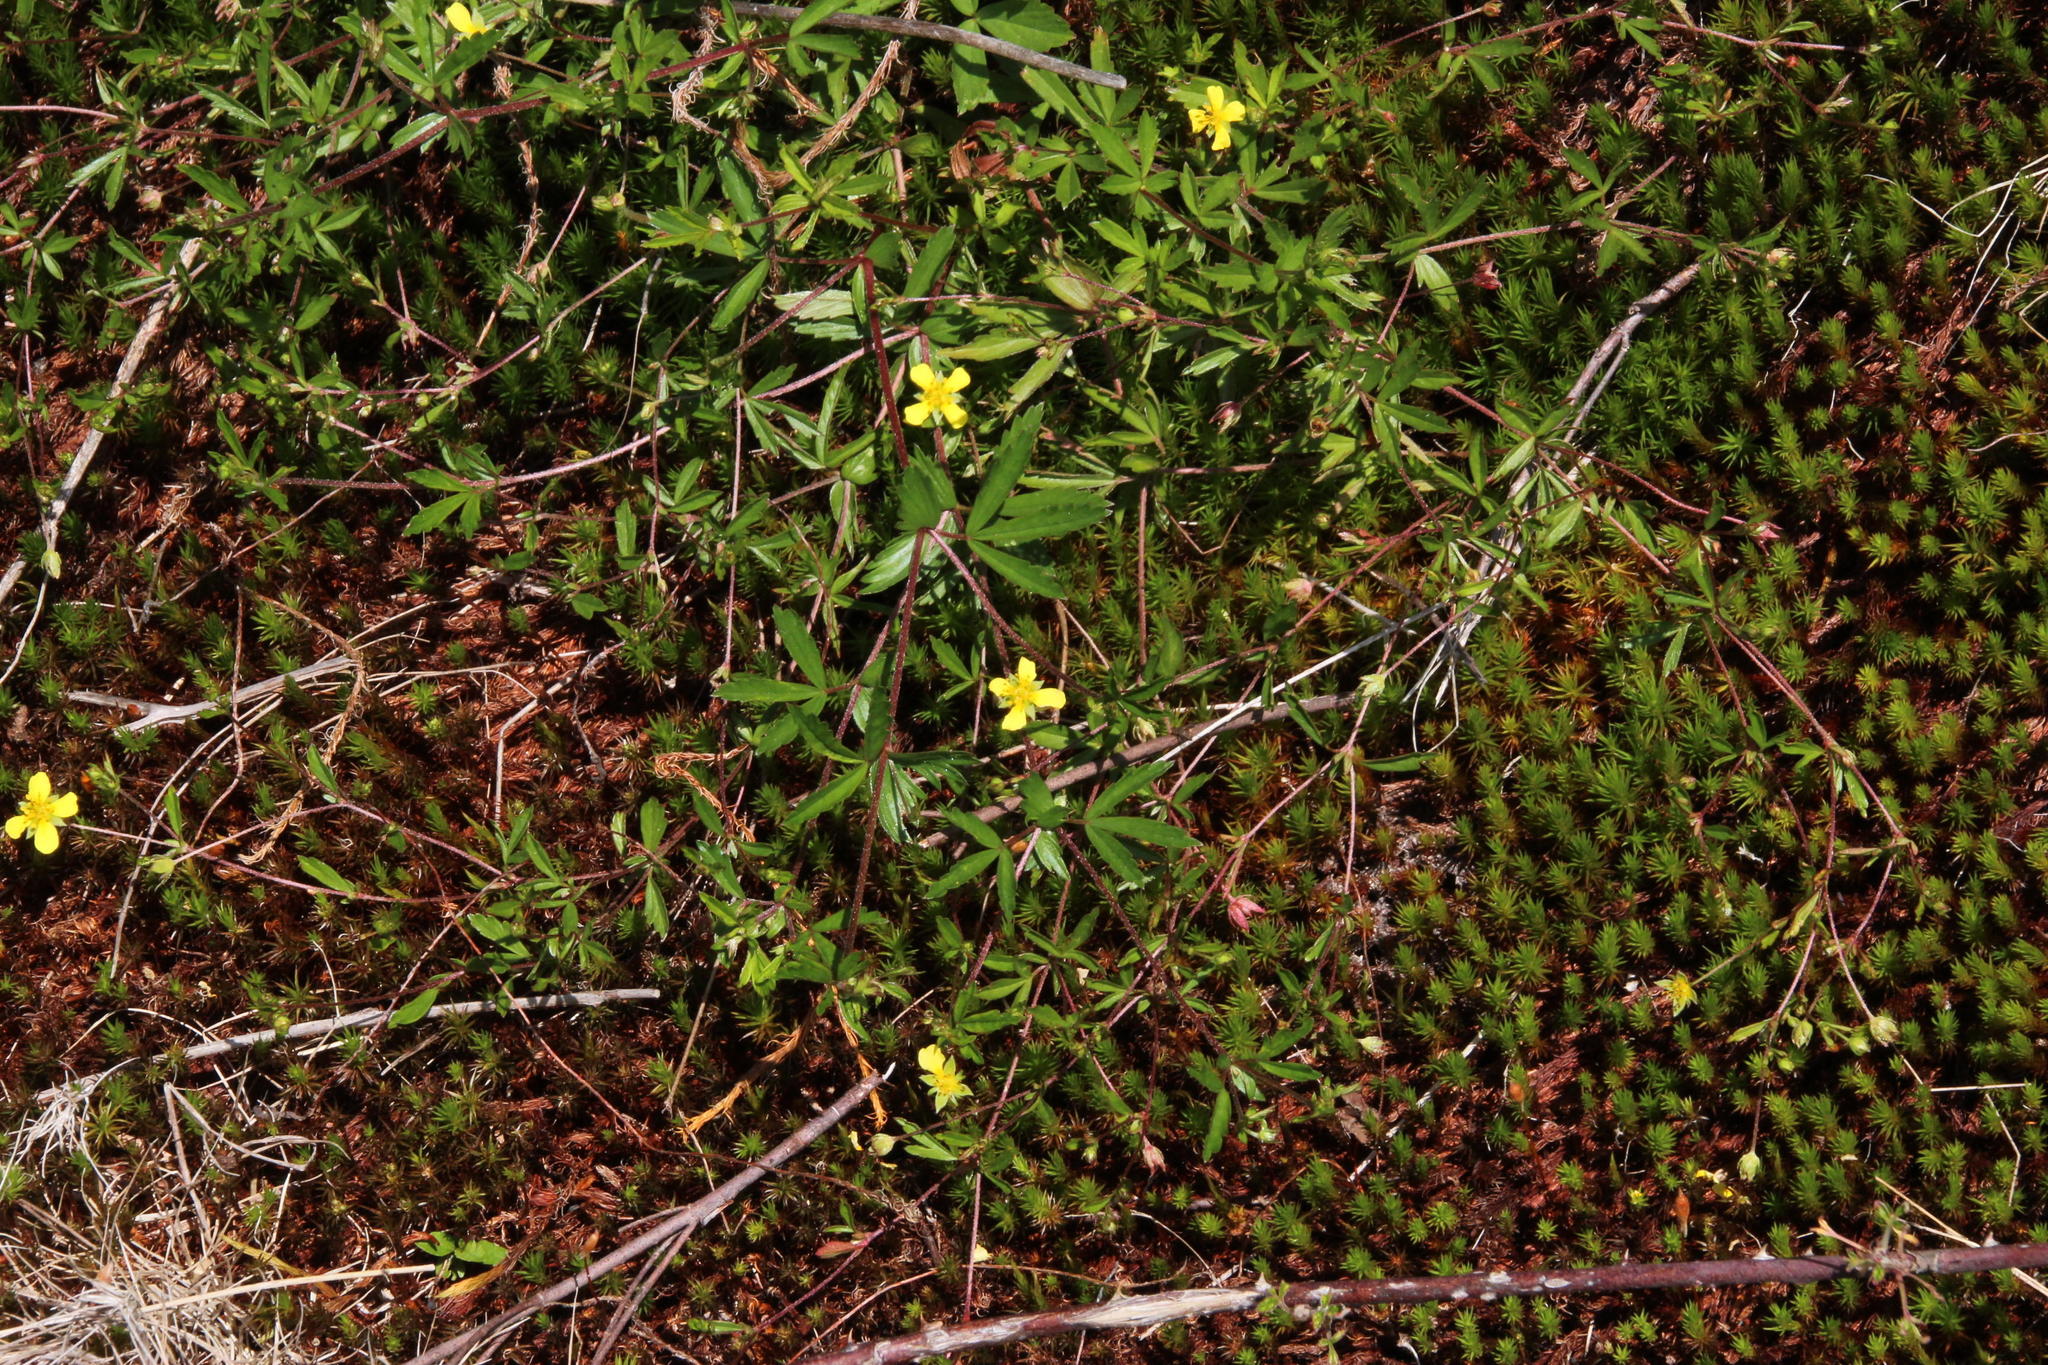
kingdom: Plantae
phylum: Tracheophyta
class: Magnoliopsida
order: Rosales
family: Rosaceae
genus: Potentilla
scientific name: Potentilla erecta
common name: Tormentil
